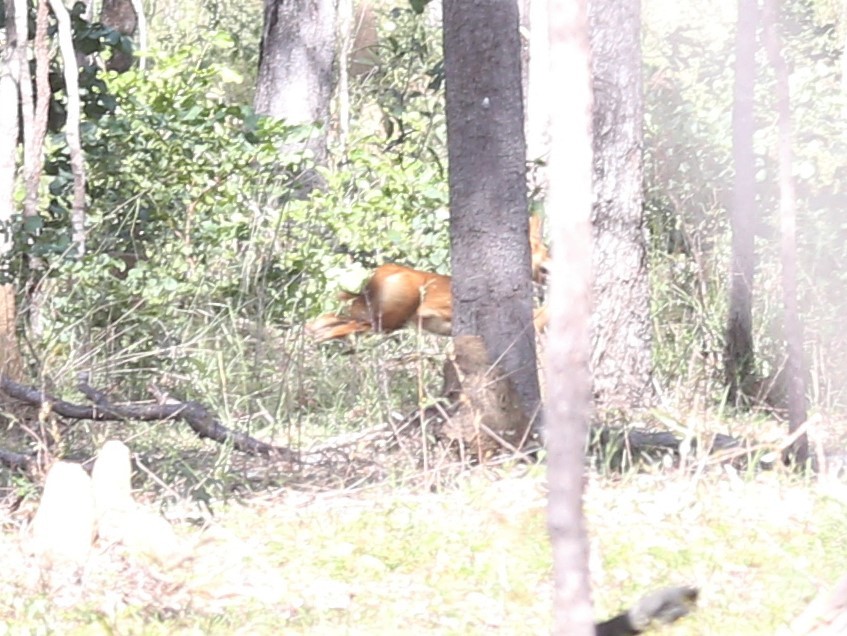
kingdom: Animalia
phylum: Chordata
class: Mammalia
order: Carnivora
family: Canidae
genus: Canis
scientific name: Canis lupus
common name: Gray wolf
